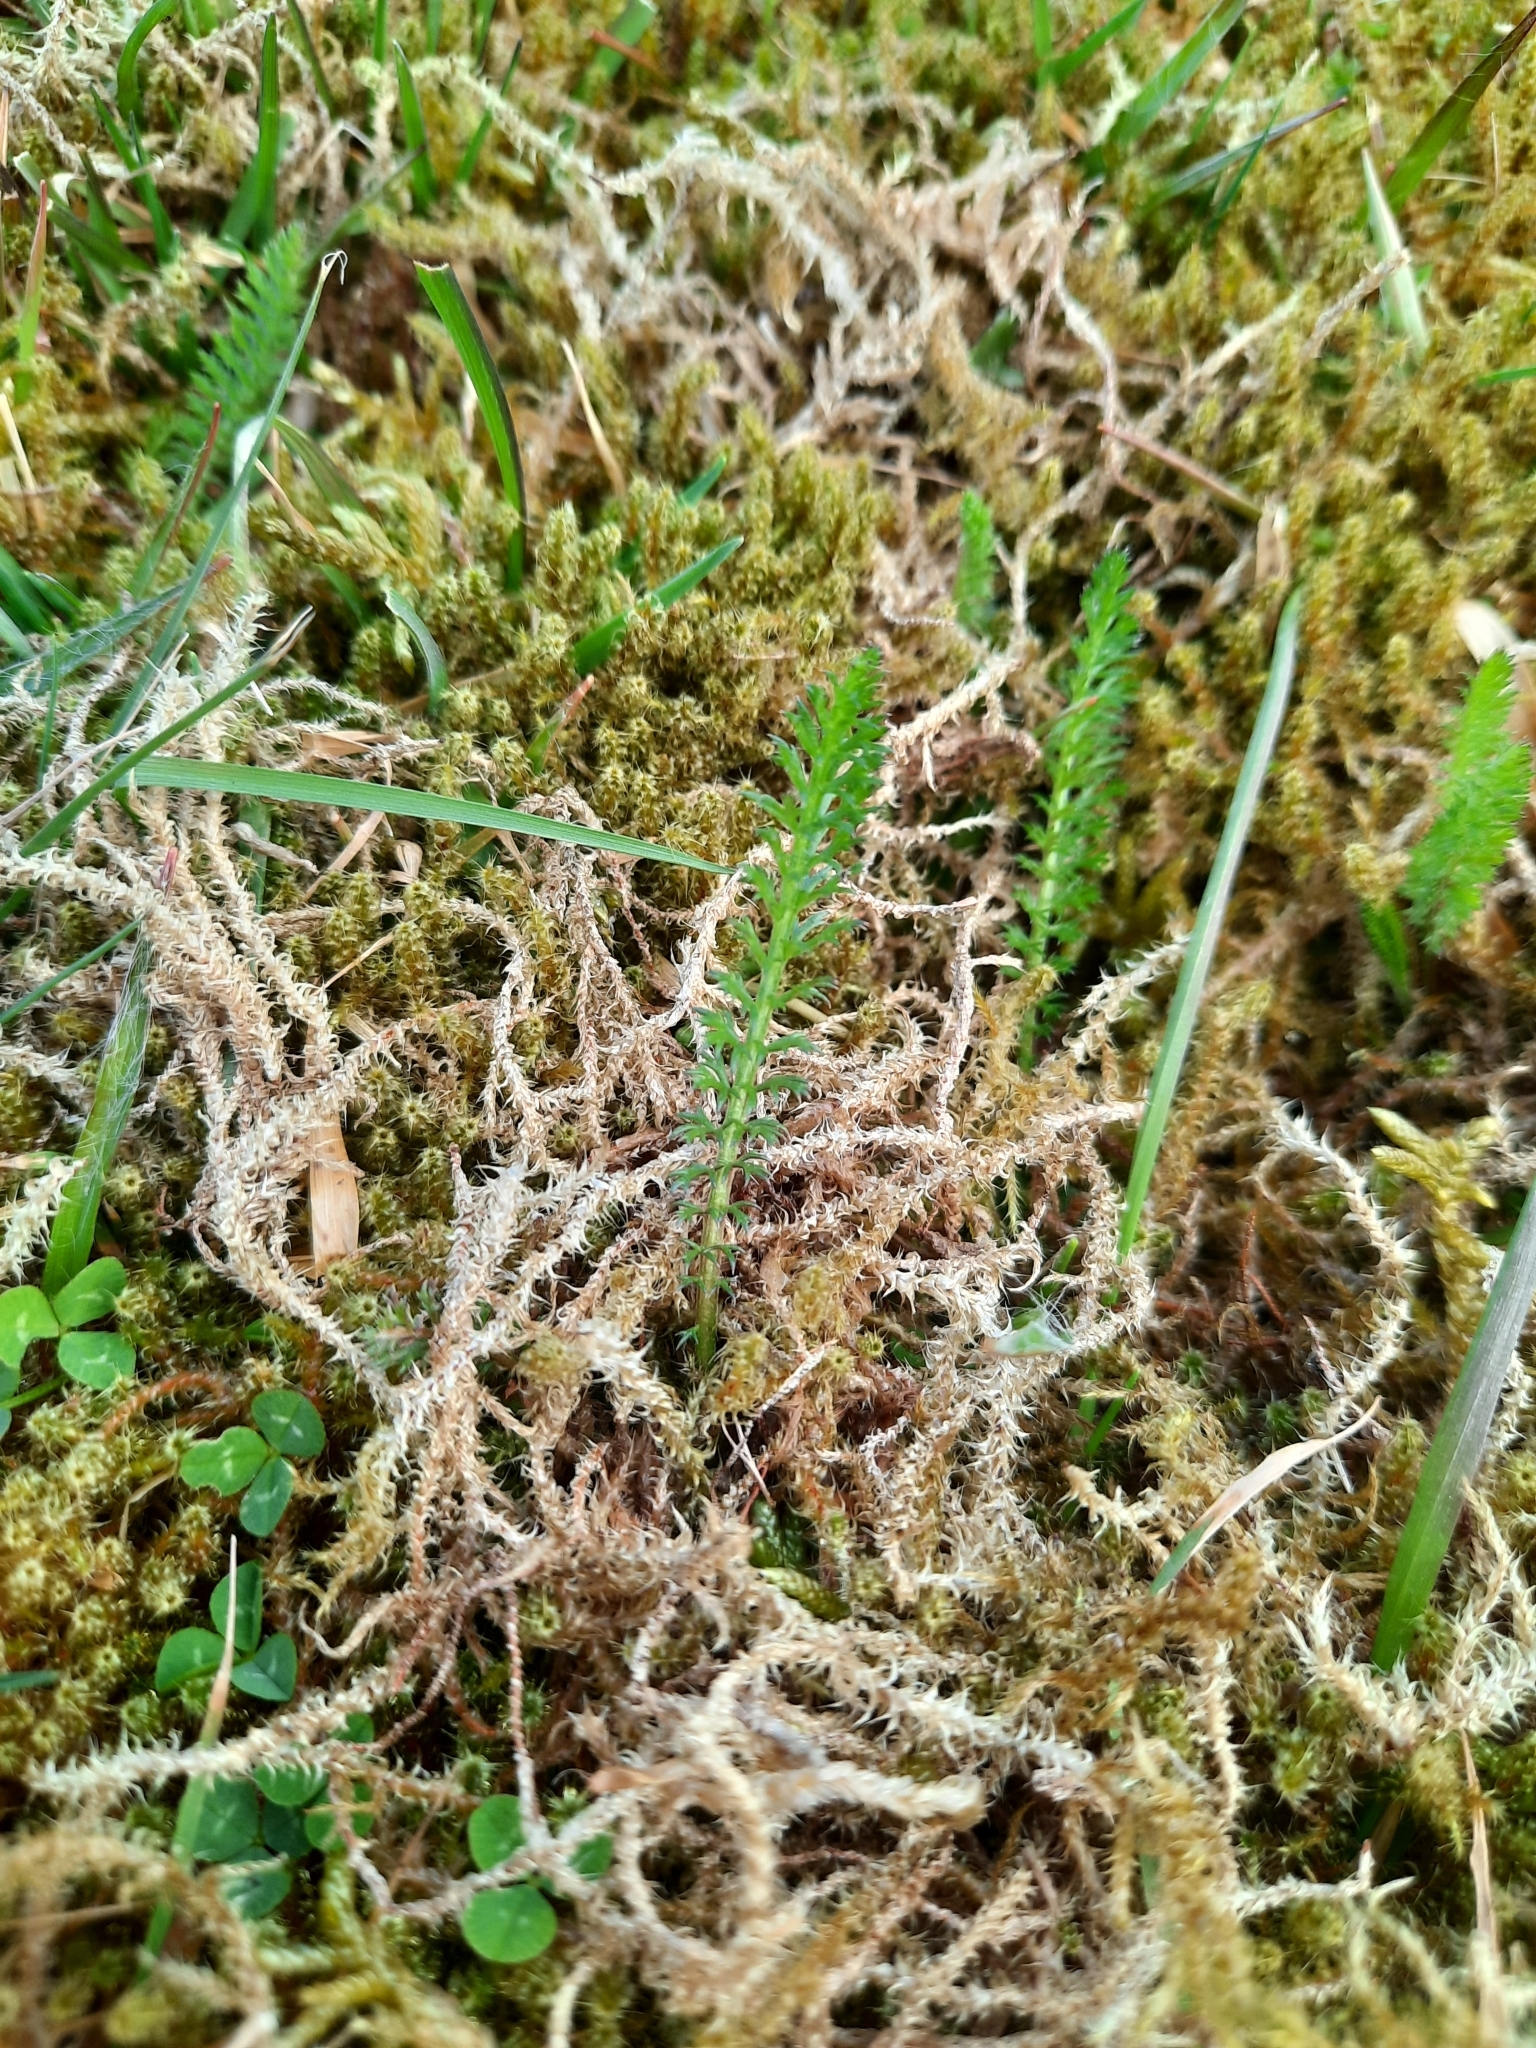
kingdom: Plantae
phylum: Tracheophyta
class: Magnoliopsida
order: Asterales
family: Asteraceae
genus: Achillea
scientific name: Achillea millefolium
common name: Yarrow
